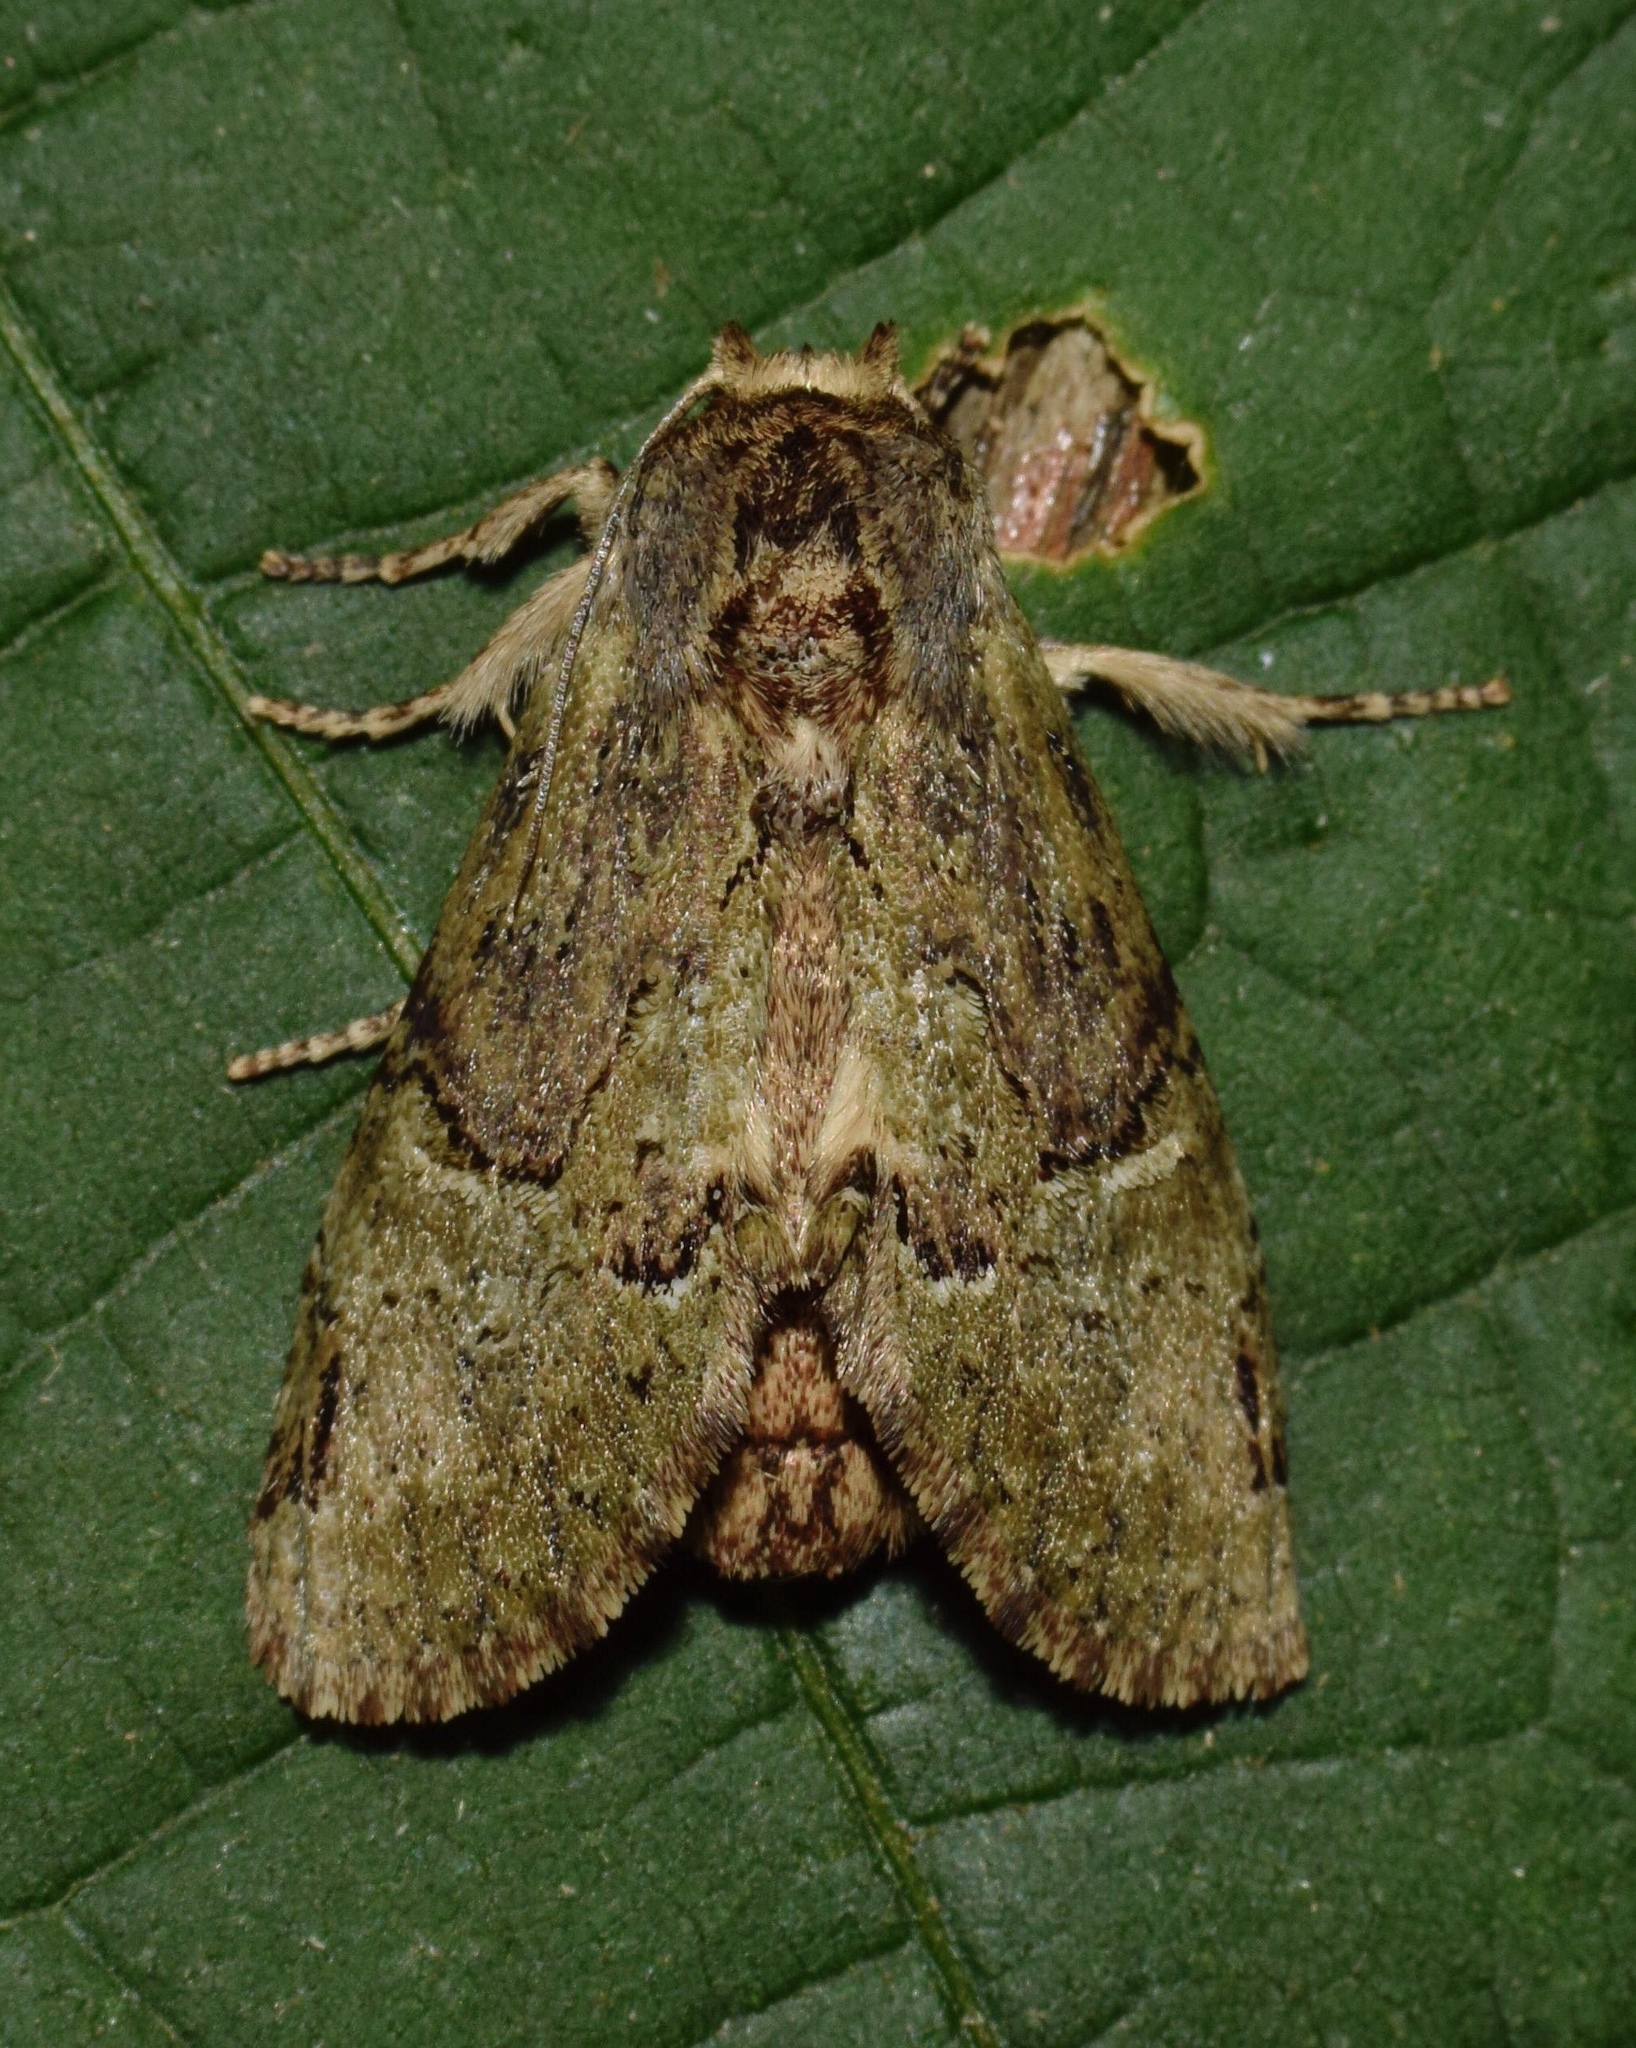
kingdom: Animalia
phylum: Arthropoda
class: Insecta
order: Lepidoptera
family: Notodontidae
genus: Stemmatophalera
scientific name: Stemmatophalera sjostedti
